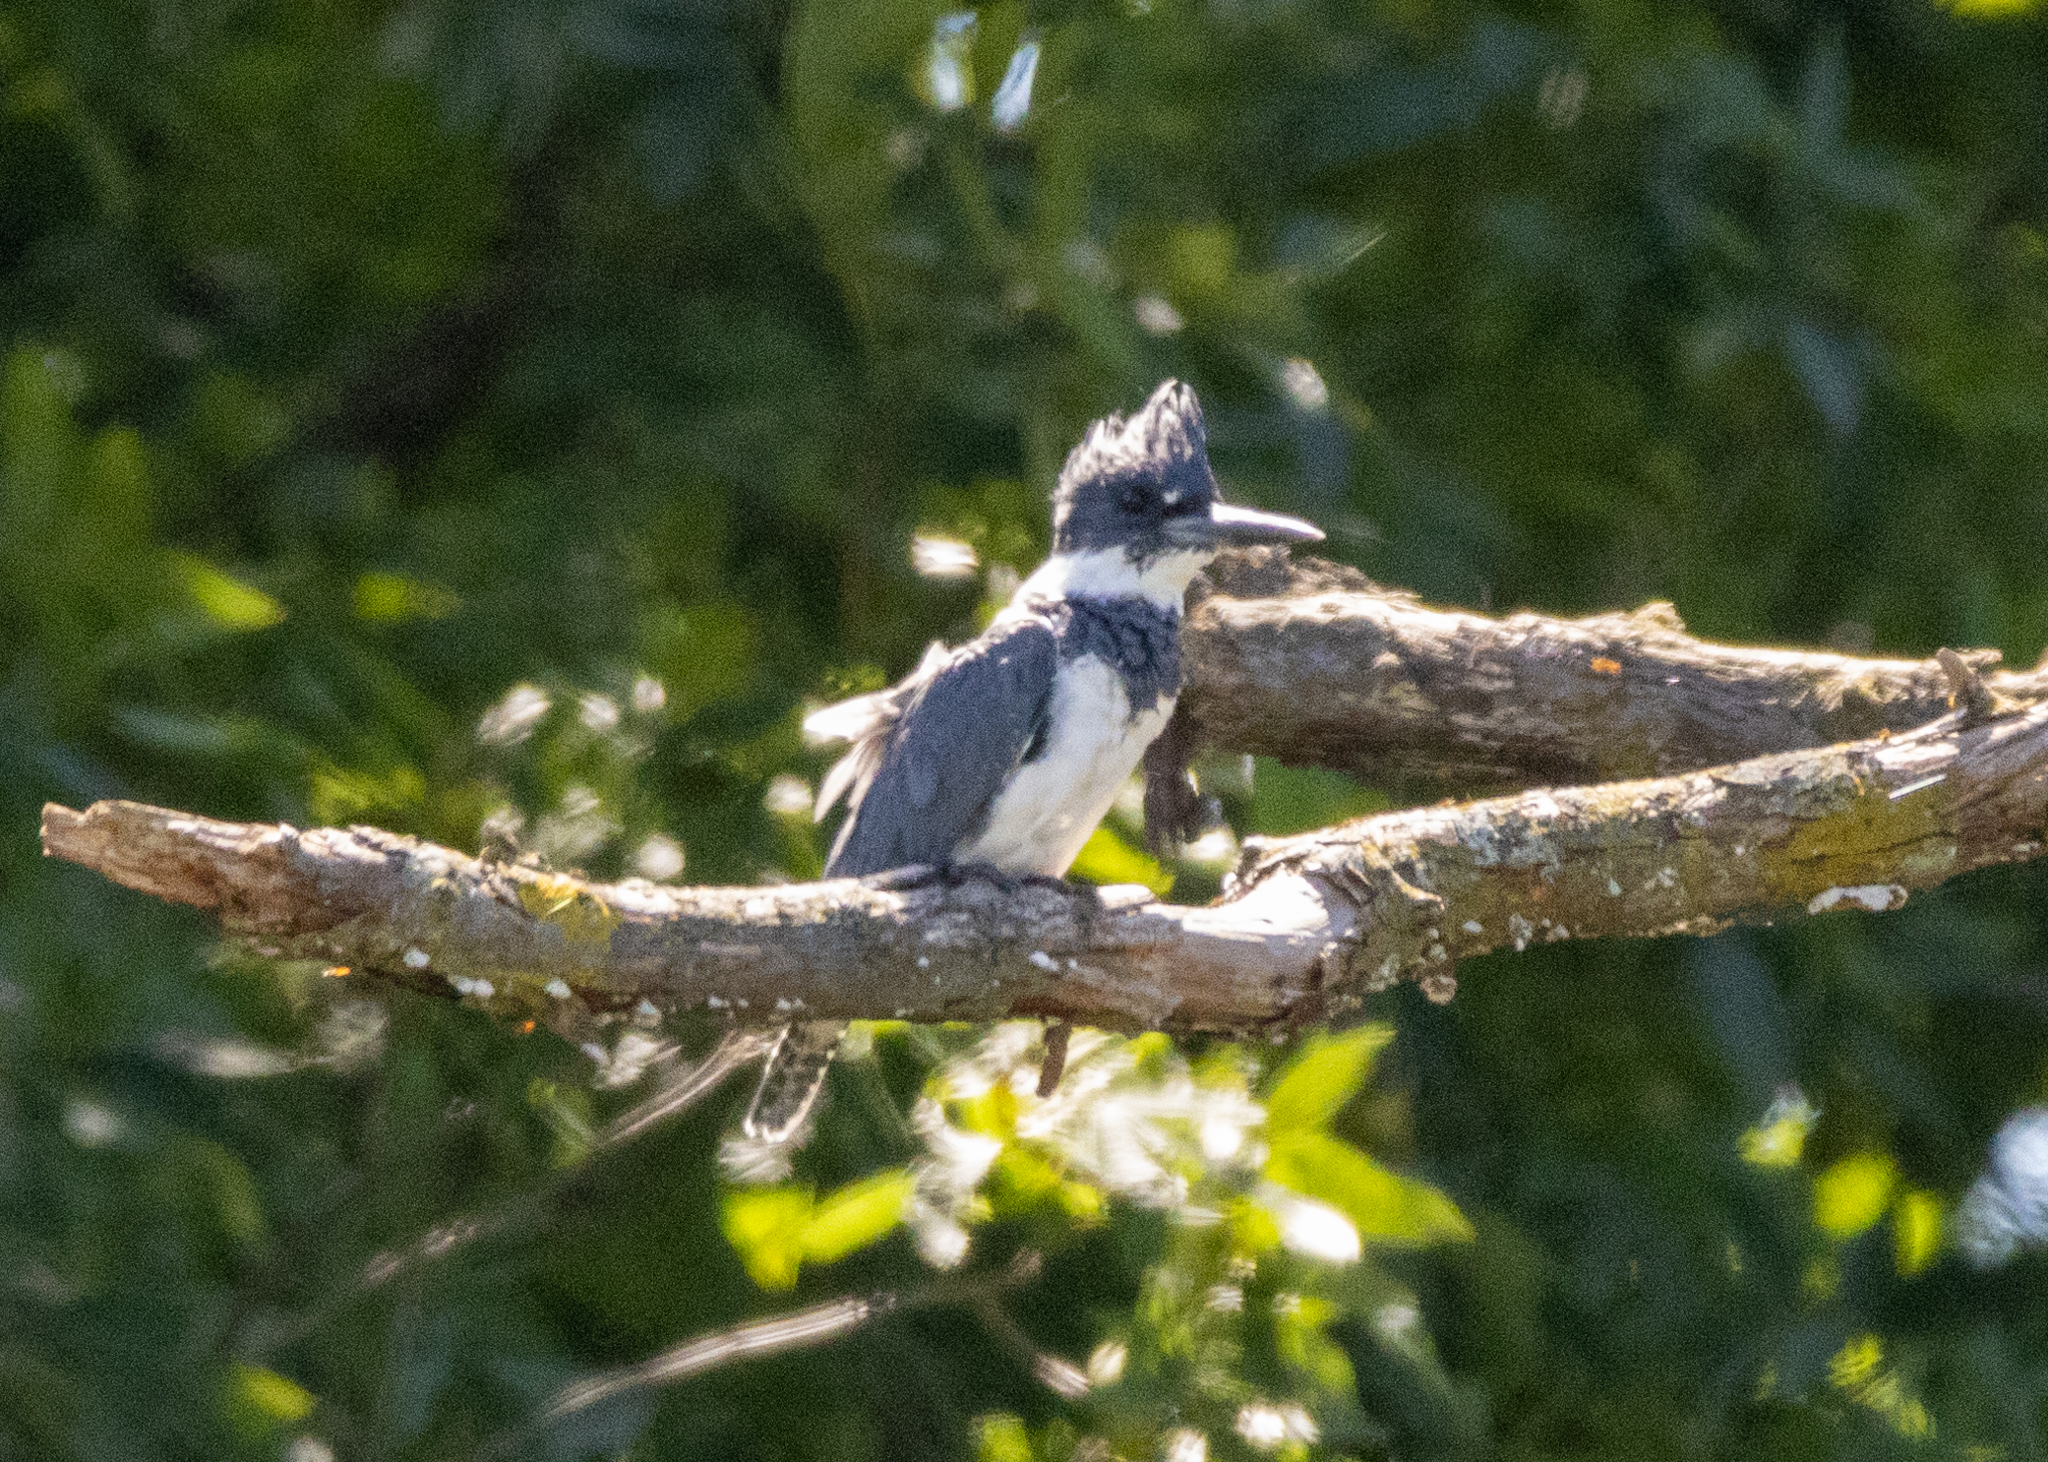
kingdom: Animalia
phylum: Chordata
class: Aves
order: Coraciiformes
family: Alcedinidae
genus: Megaceryle
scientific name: Megaceryle alcyon
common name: Belted kingfisher
